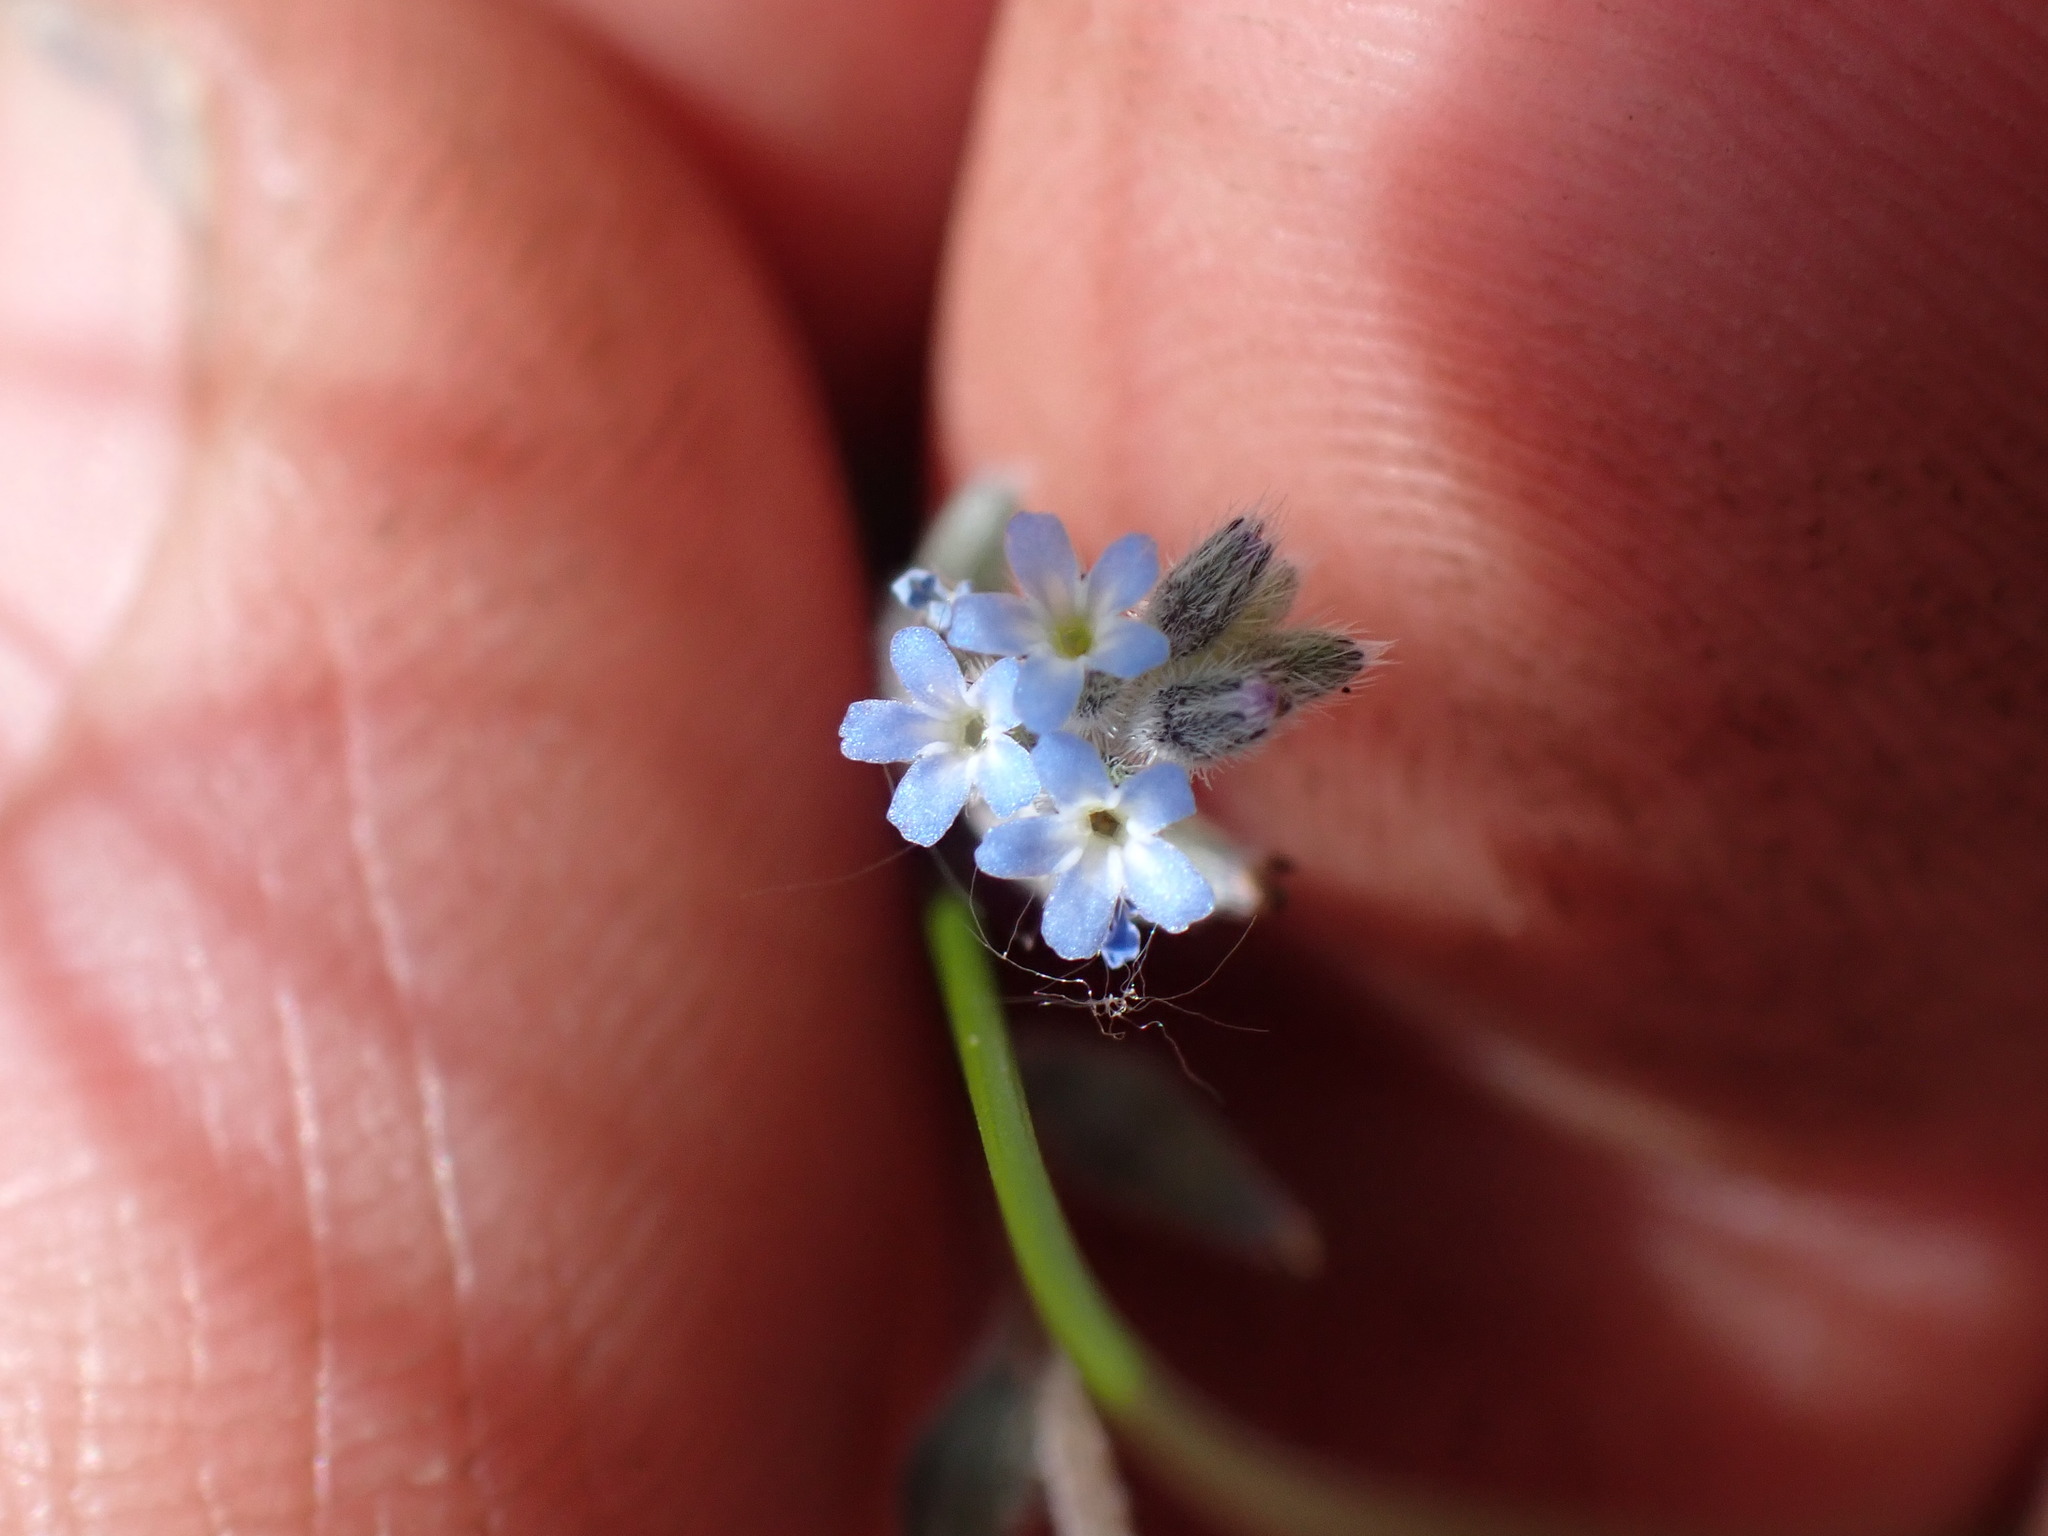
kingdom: Plantae
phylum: Tracheophyta
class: Magnoliopsida
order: Boraginales
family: Boraginaceae
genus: Myosotis
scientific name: Myosotis stricta
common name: Strict forget-me-not
